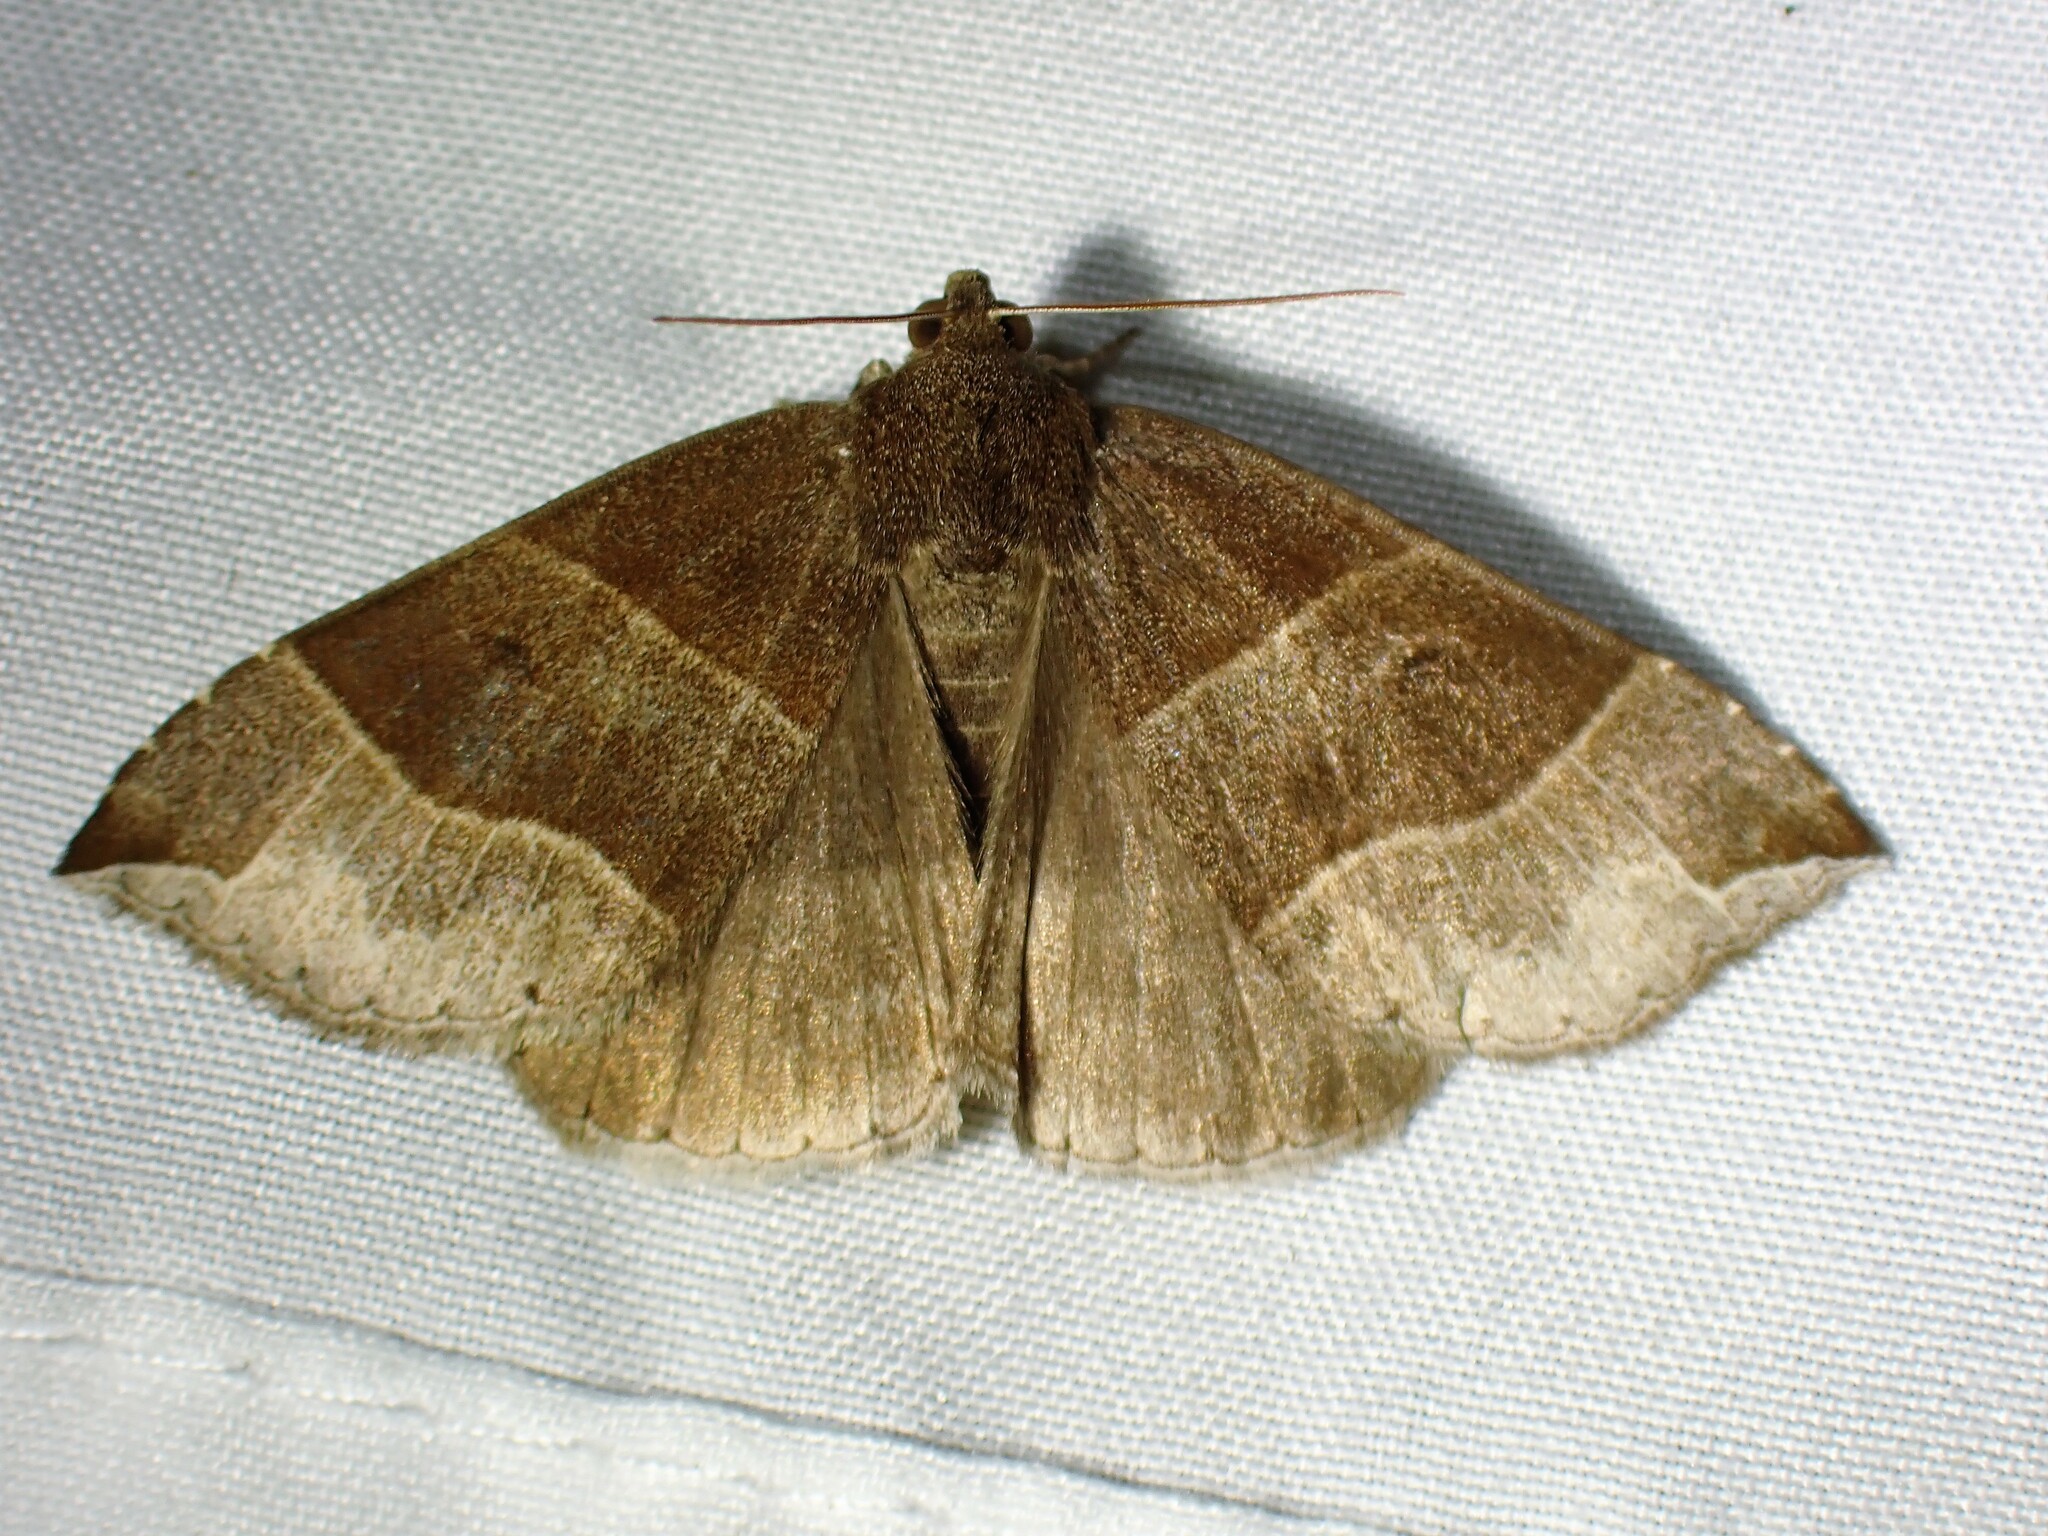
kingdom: Animalia
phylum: Arthropoda
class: Insecta
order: Lepidoptera
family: Erebidae
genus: Parallelia
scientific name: Parallelia bistriaris
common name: Maple looper moth
